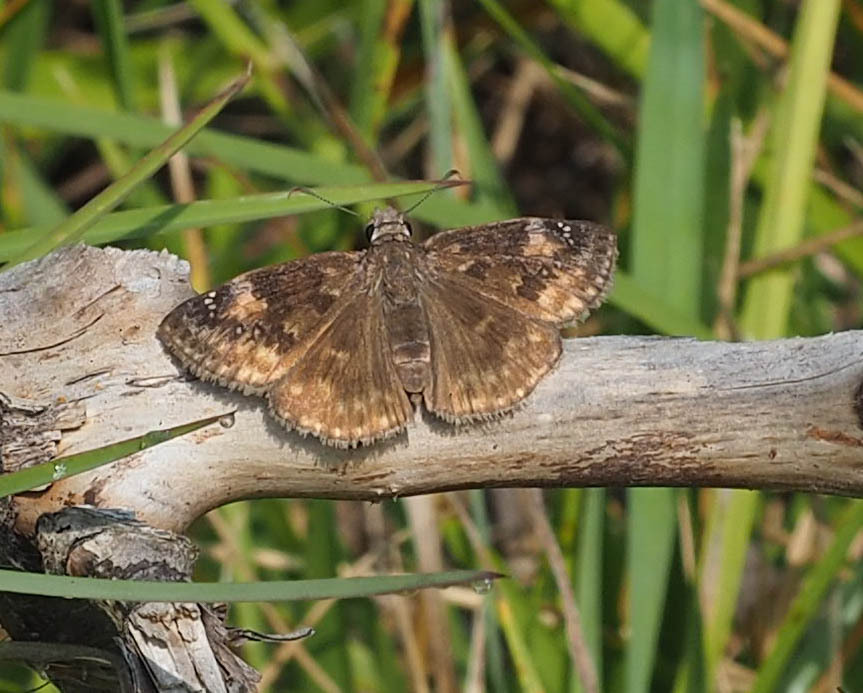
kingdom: Animalia
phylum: Arthropoda
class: Insecta
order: Lepidoptera
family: Hesperiidae
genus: Erynnis
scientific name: Erynnis baptisiae
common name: Wild indigo duskywing
